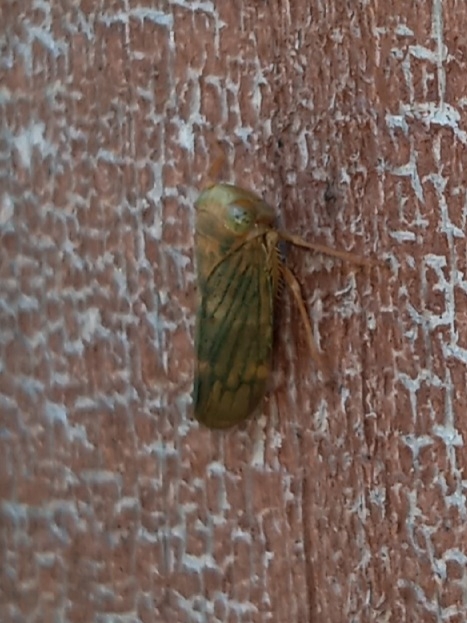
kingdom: Animalia
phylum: Arthropoda
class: Insecta
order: Hemiptera
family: Cicadellidae
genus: Jikradia
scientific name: Jikradia olitoria
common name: Coppery leafhopper
